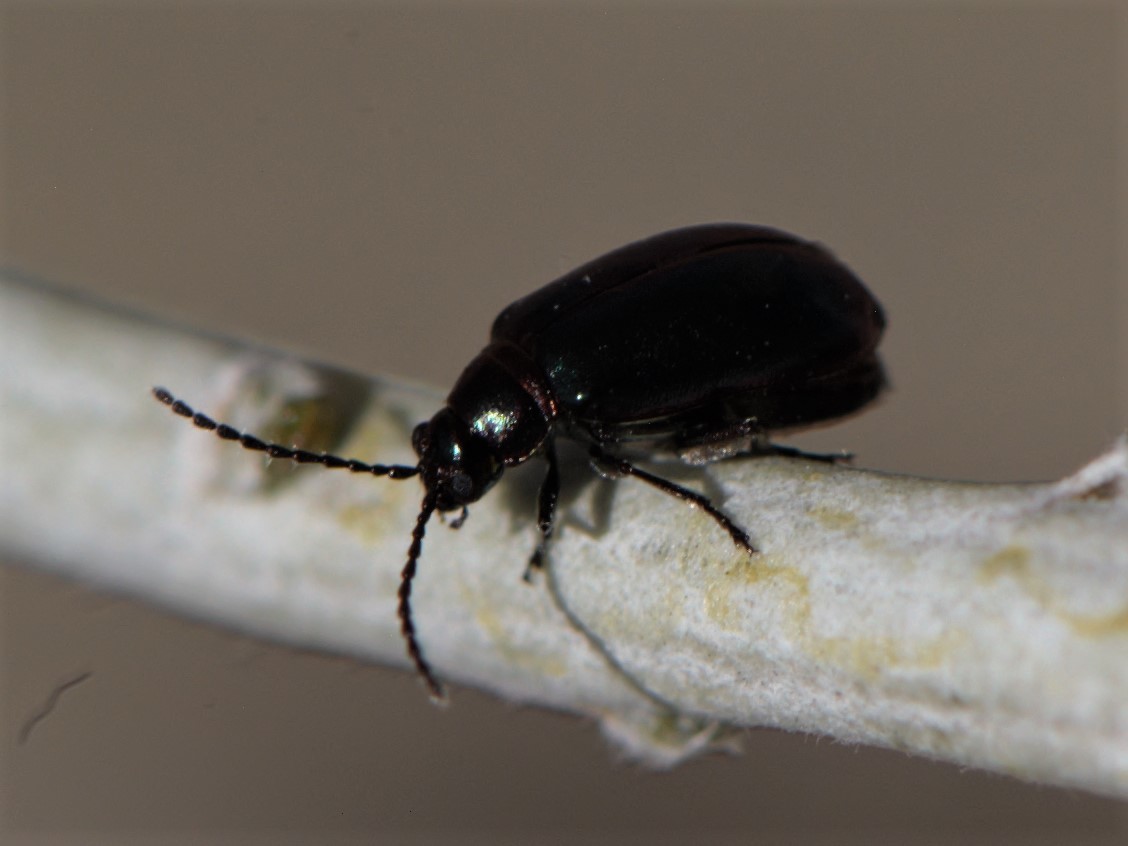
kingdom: Animalia
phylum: Arthropoda
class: Insecta
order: Coleoptera
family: Chrysomelidae
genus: Altica
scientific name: Altica torquata
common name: Leaf beetle
